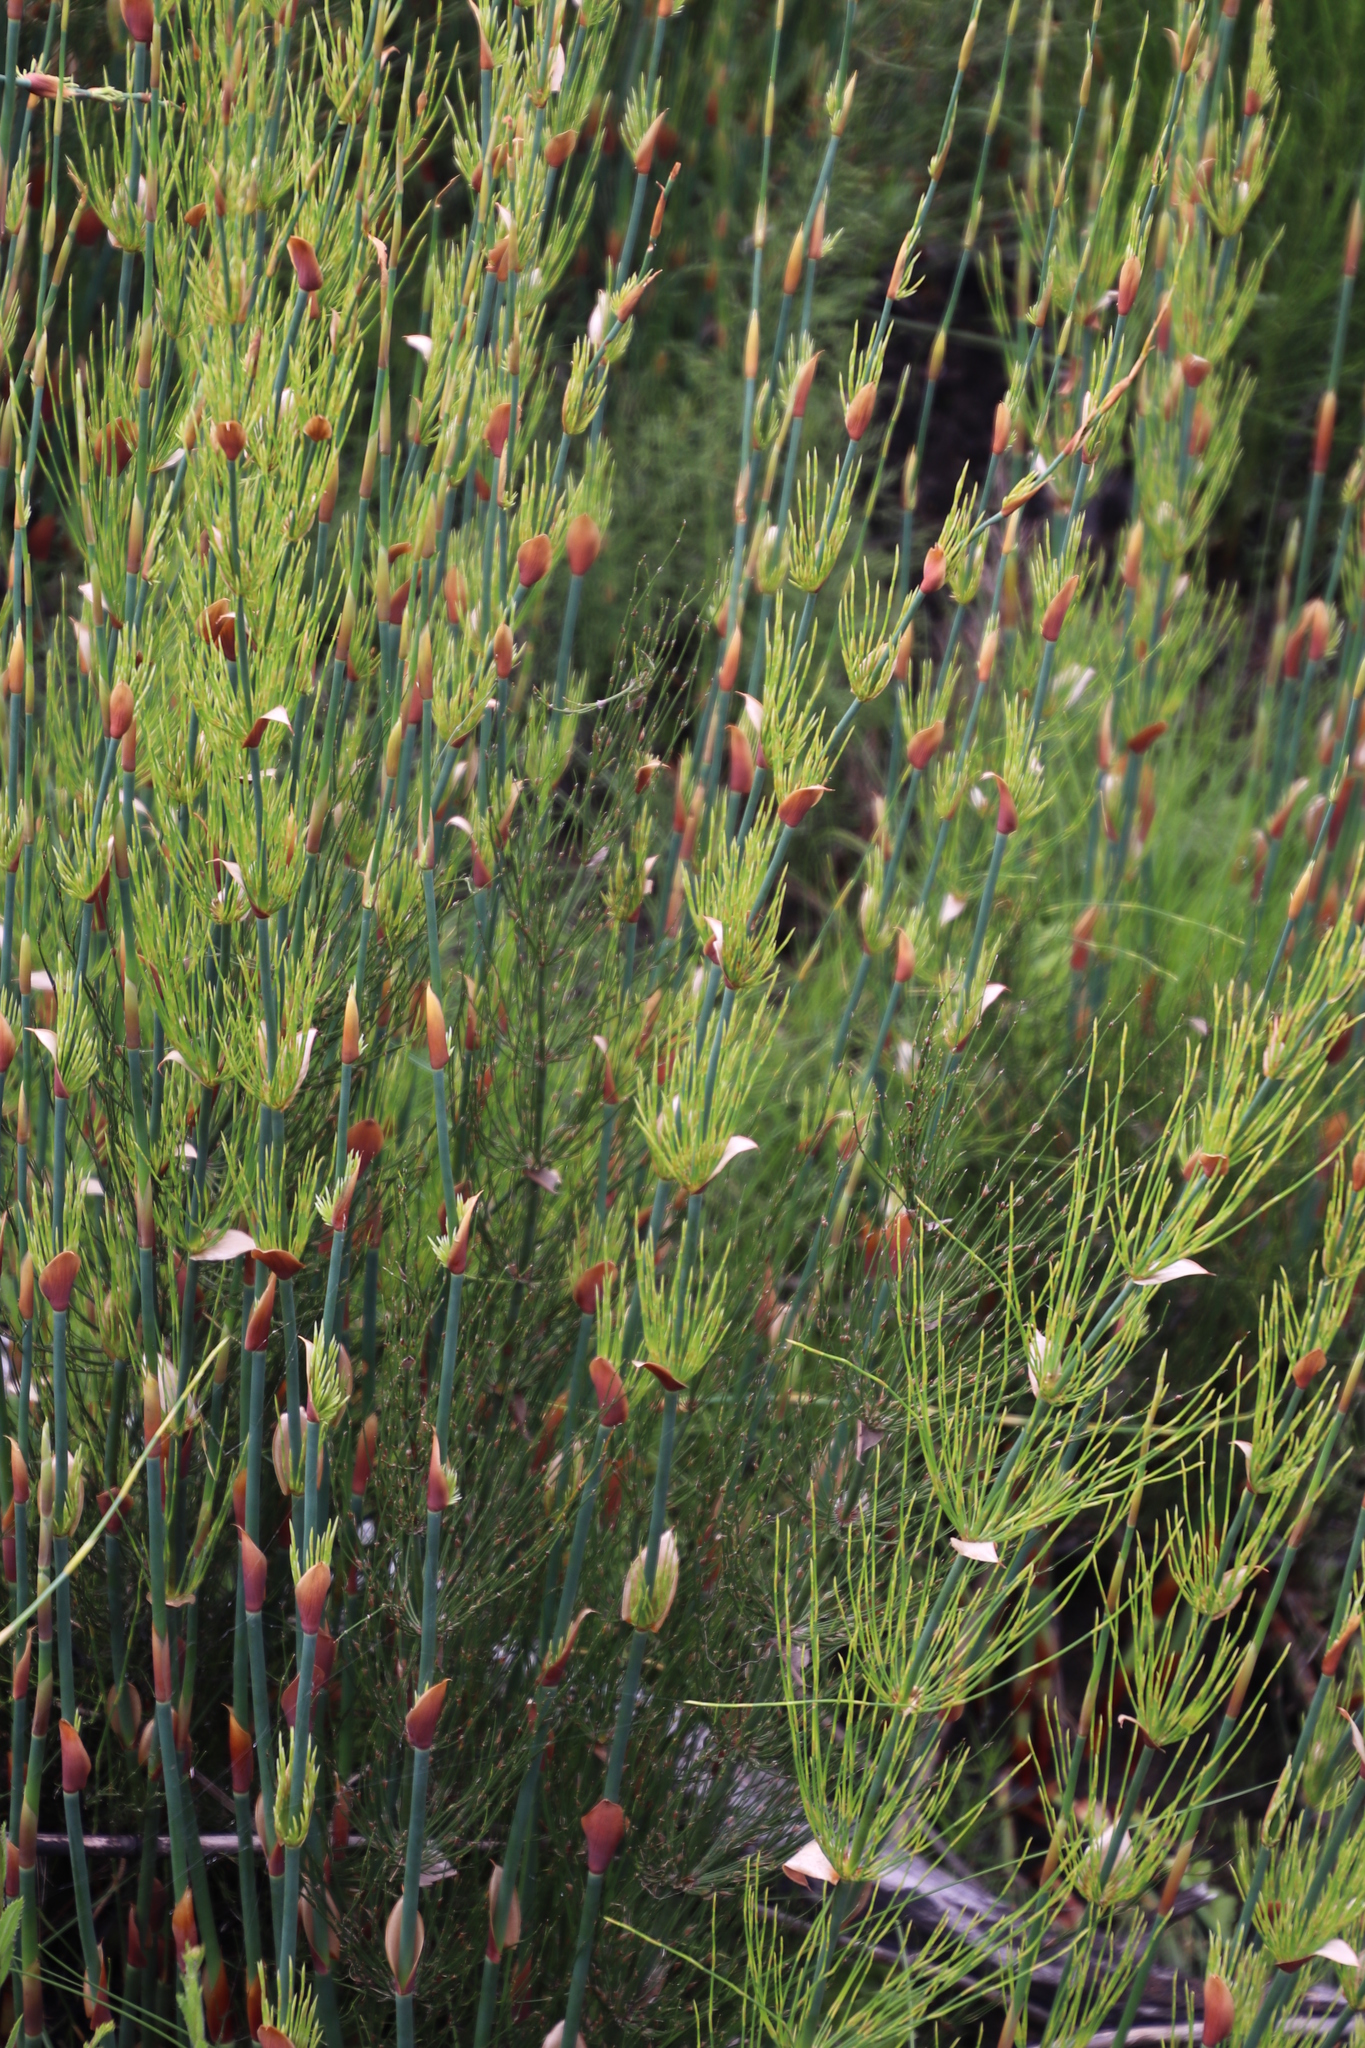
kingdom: Plantae
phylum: Tracheophyta
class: Liliopsida
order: Poales
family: Restionaceae
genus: Elegia
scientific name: Elegia capensis
